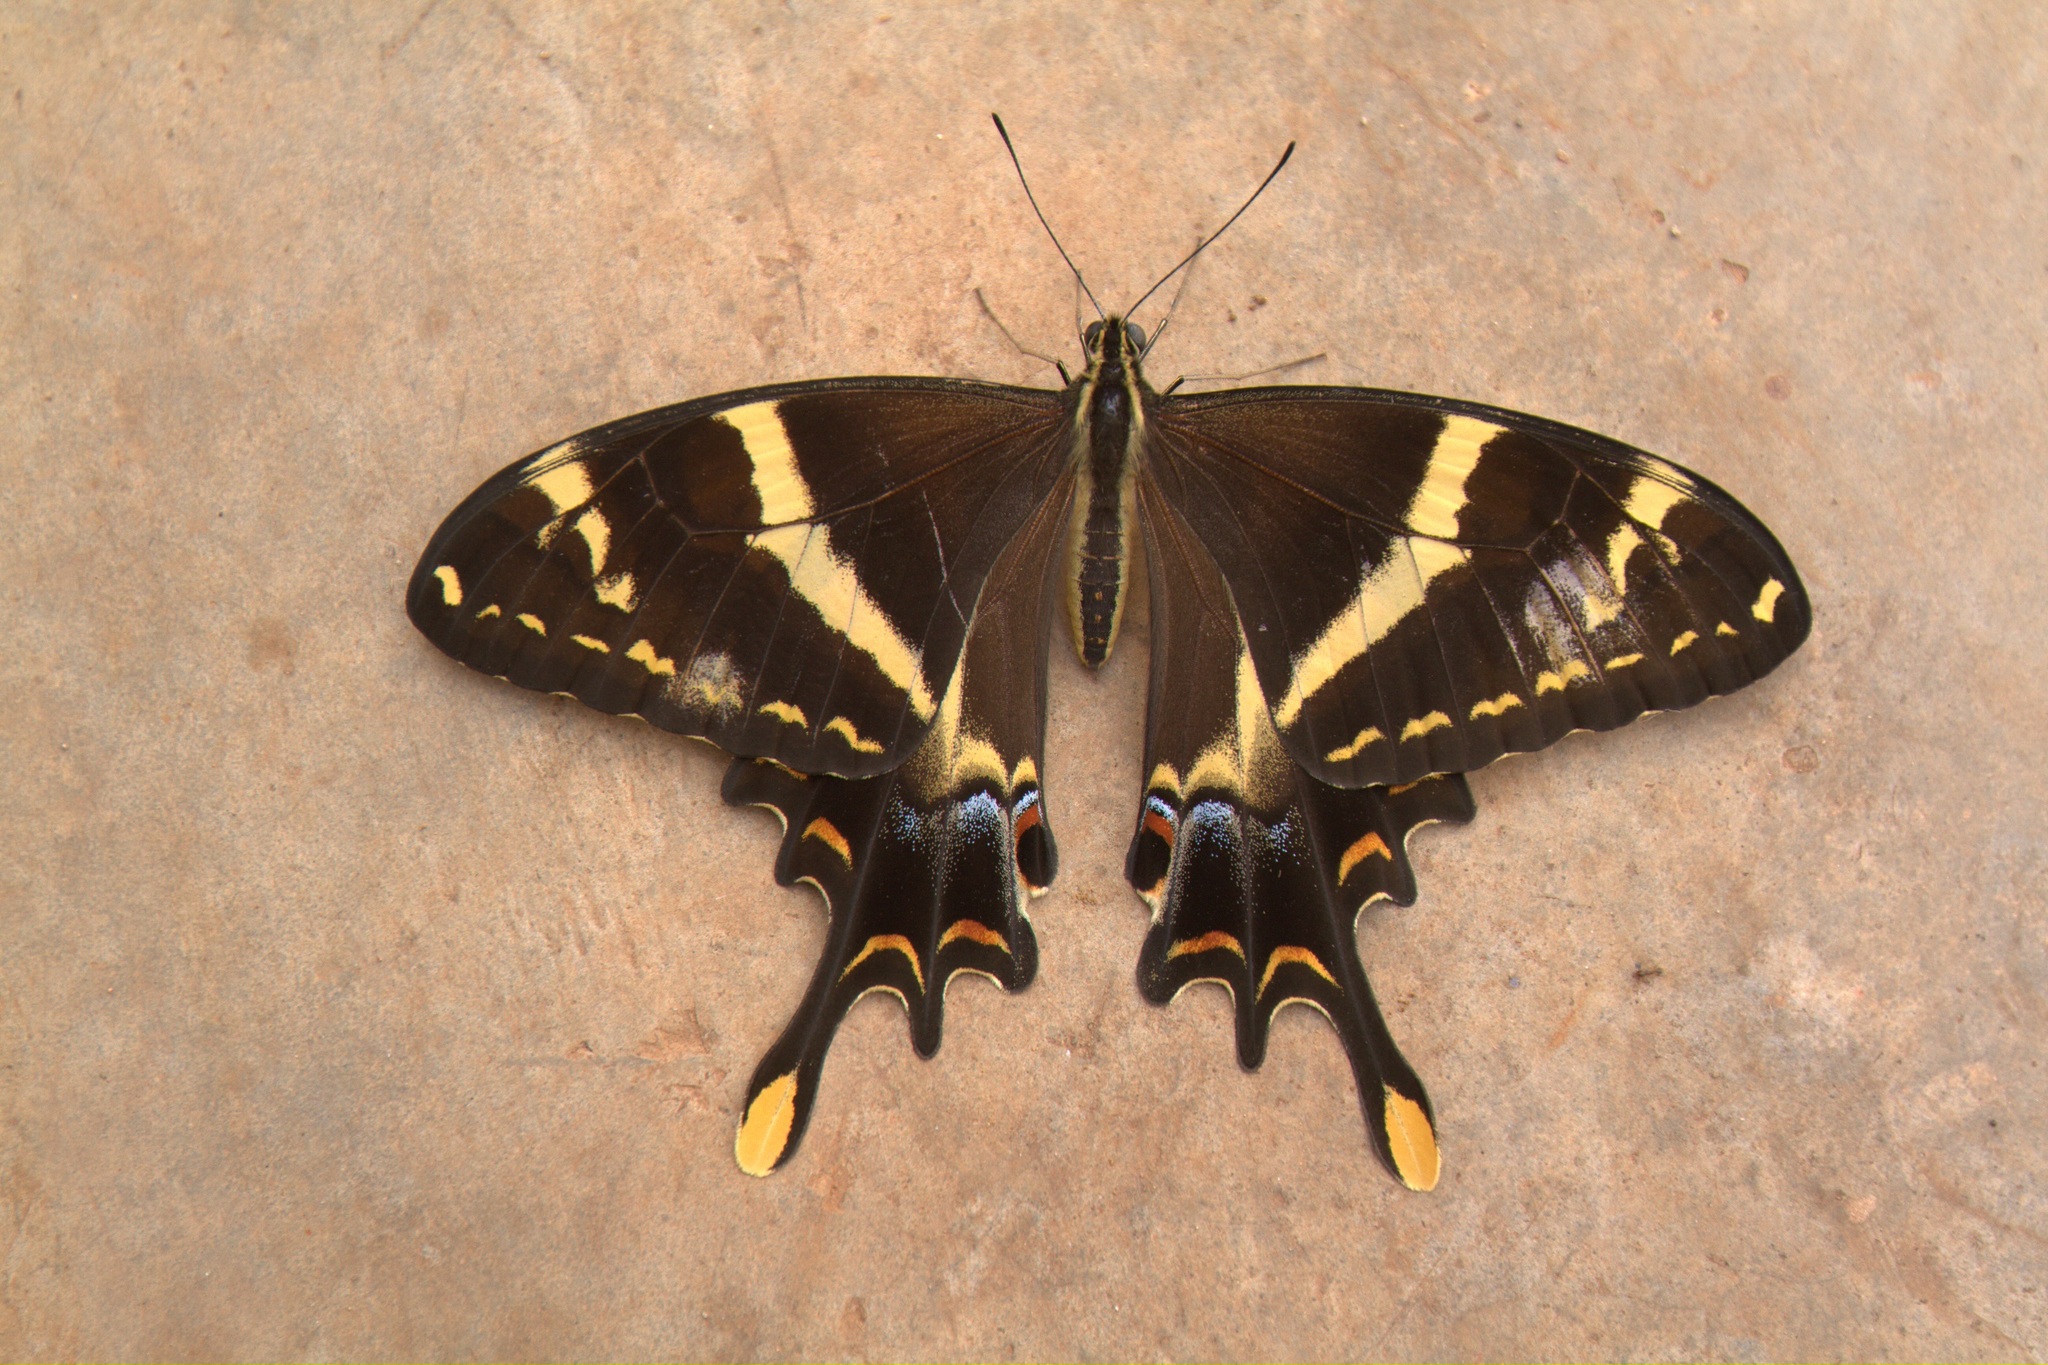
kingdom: Animalia
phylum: Arthropoda
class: Insecta
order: Lepidoptera
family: Papilionidae
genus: Papilio
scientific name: Papilio machaonides
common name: Machaonides swallowtail
